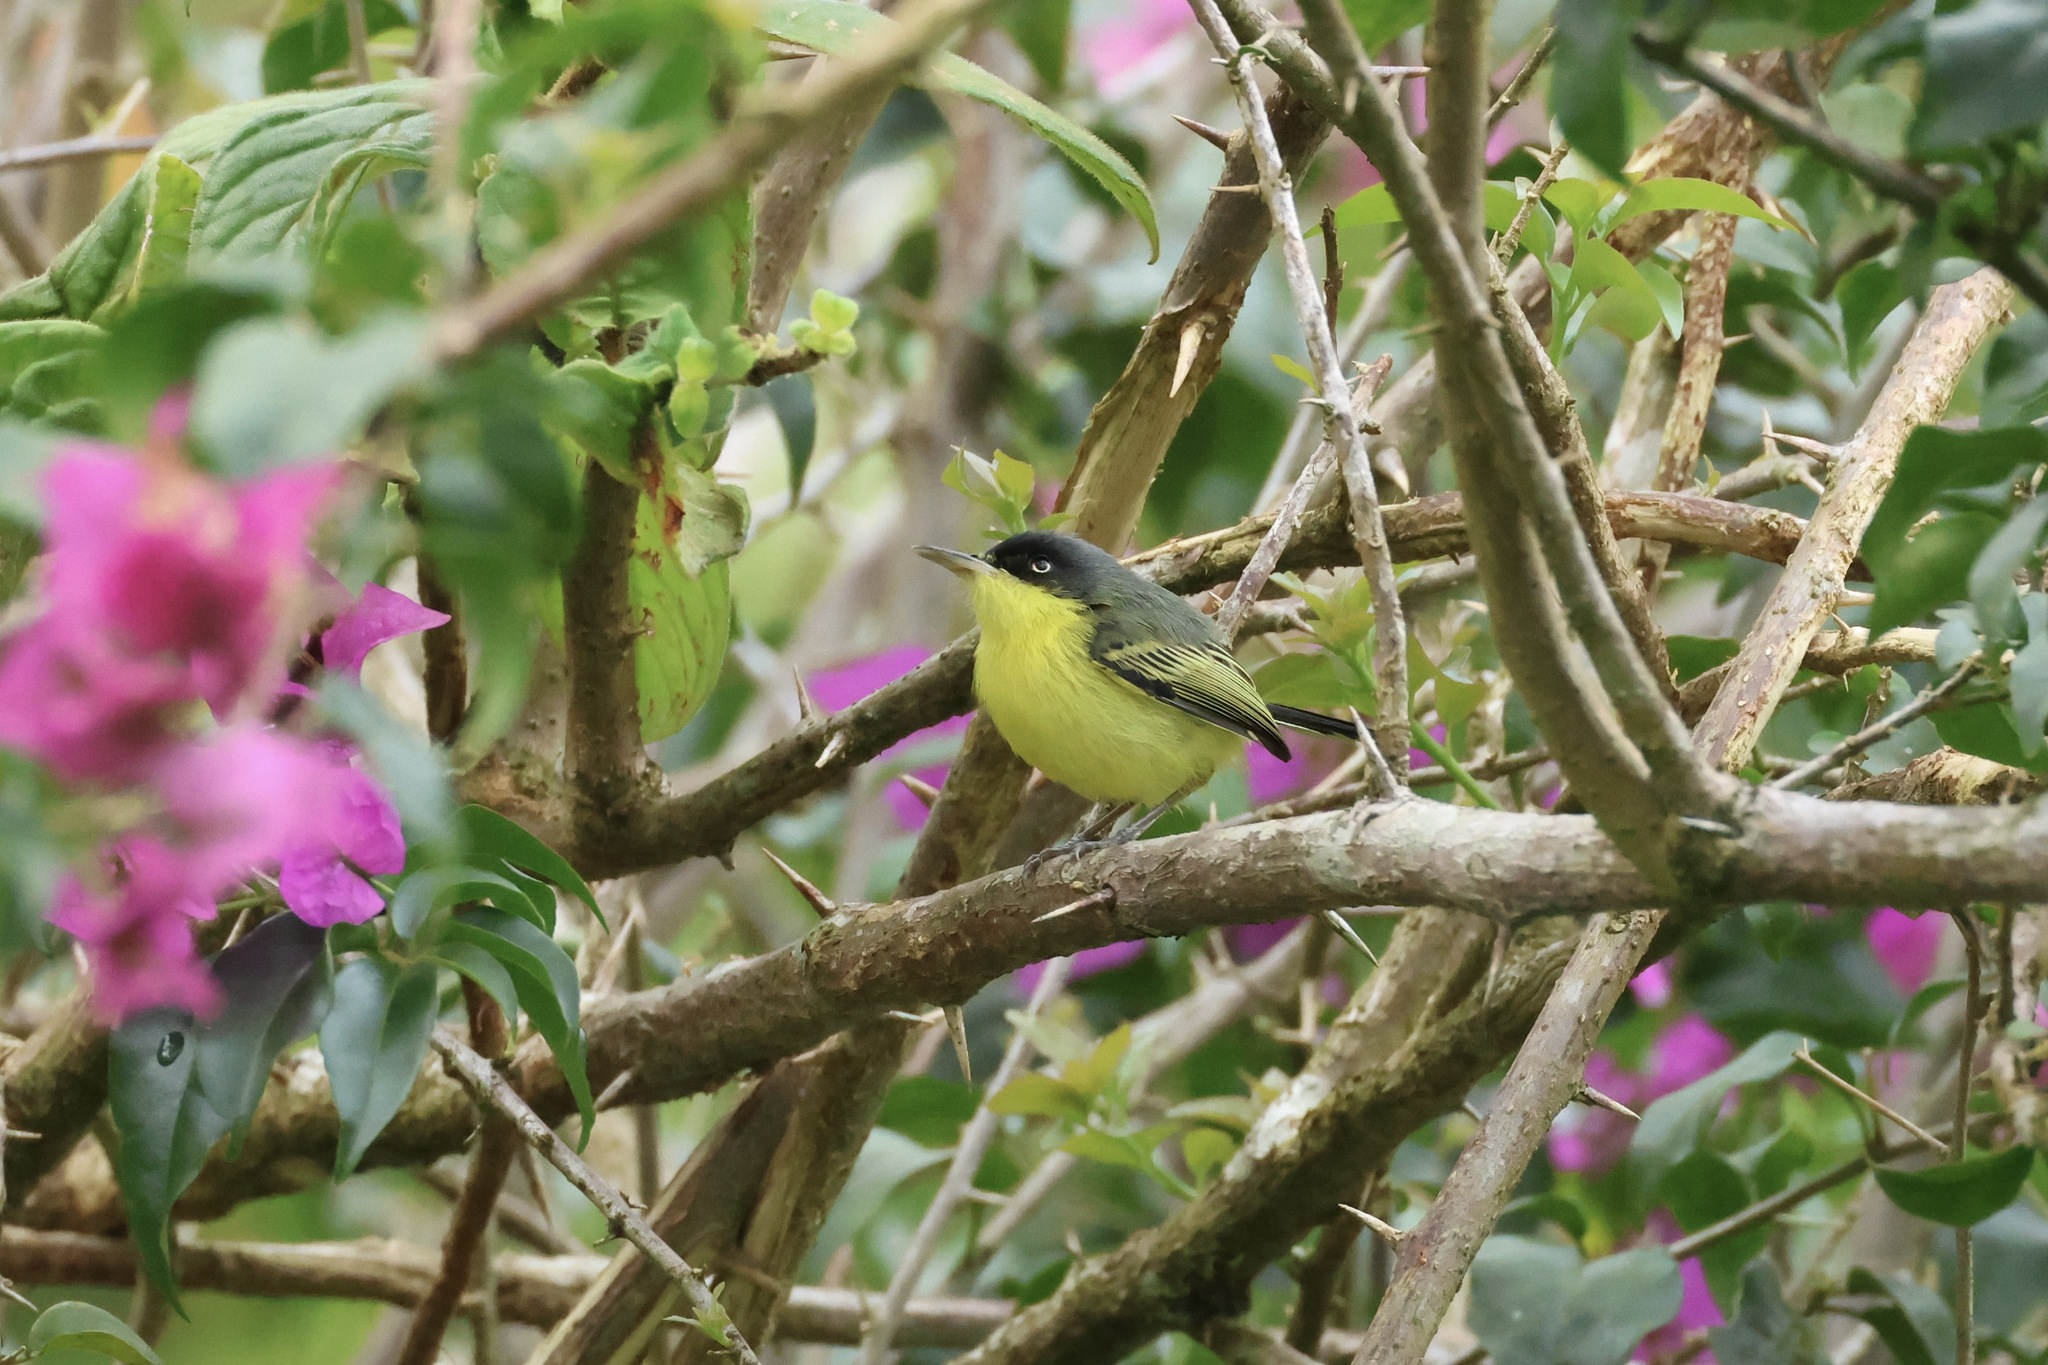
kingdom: Animalia
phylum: Chordata
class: Aves
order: Passeriformes
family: Tyrannidae
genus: Todirostrum
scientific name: Todirostrum cinereum
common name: Common tody-flycatcher
